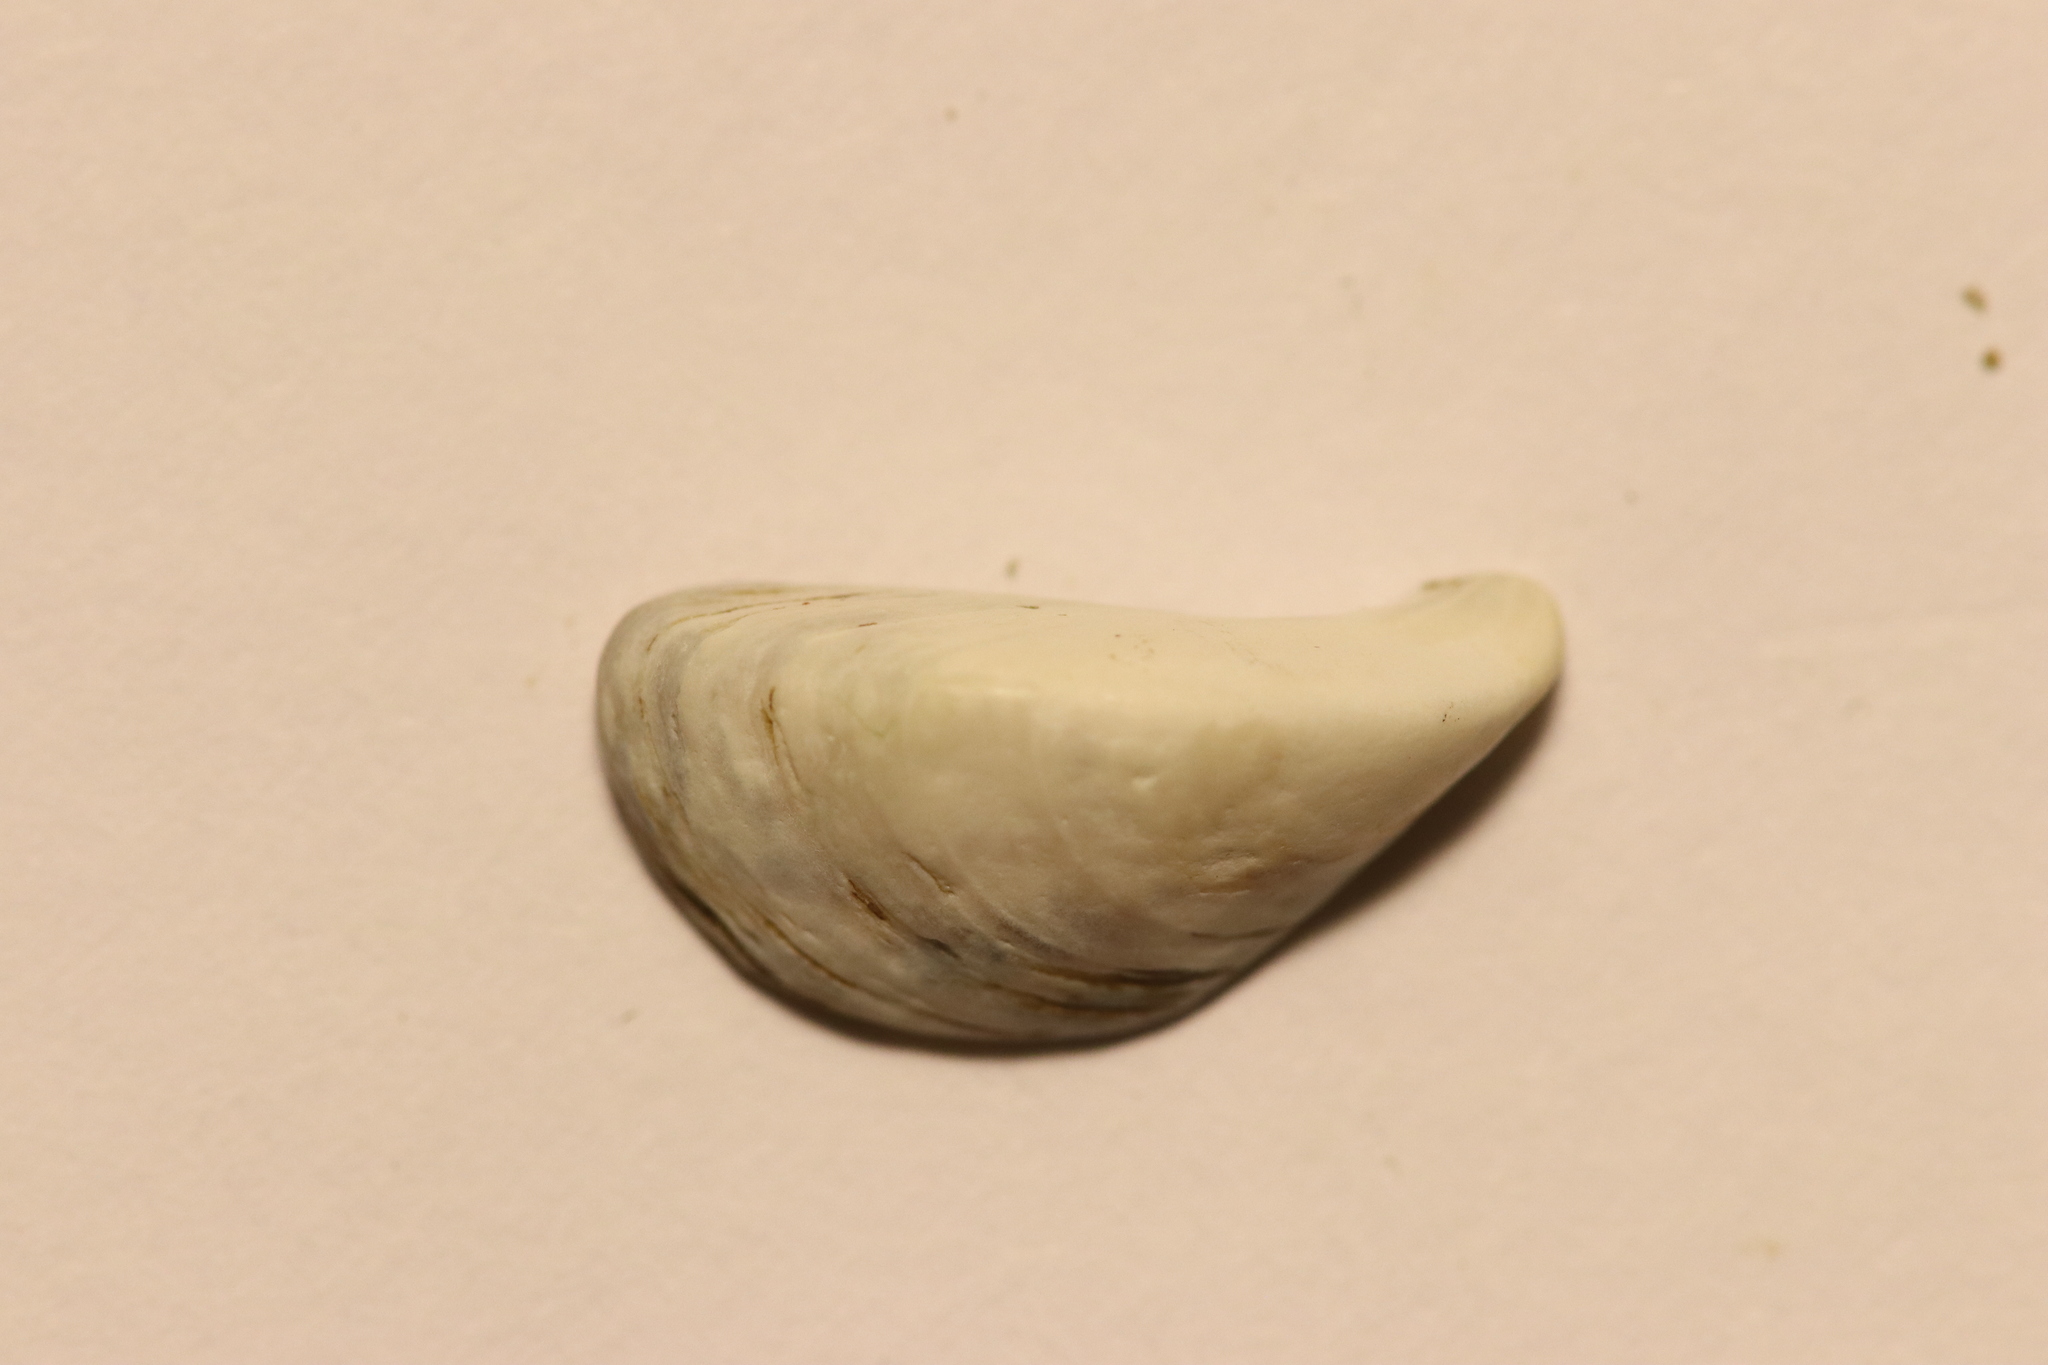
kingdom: Animalia
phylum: Mollusca
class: Bivalvia
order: Myida
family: Dreissenidae
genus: Dreissena
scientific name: Dreissena polymorpha
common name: Zebra mussel
